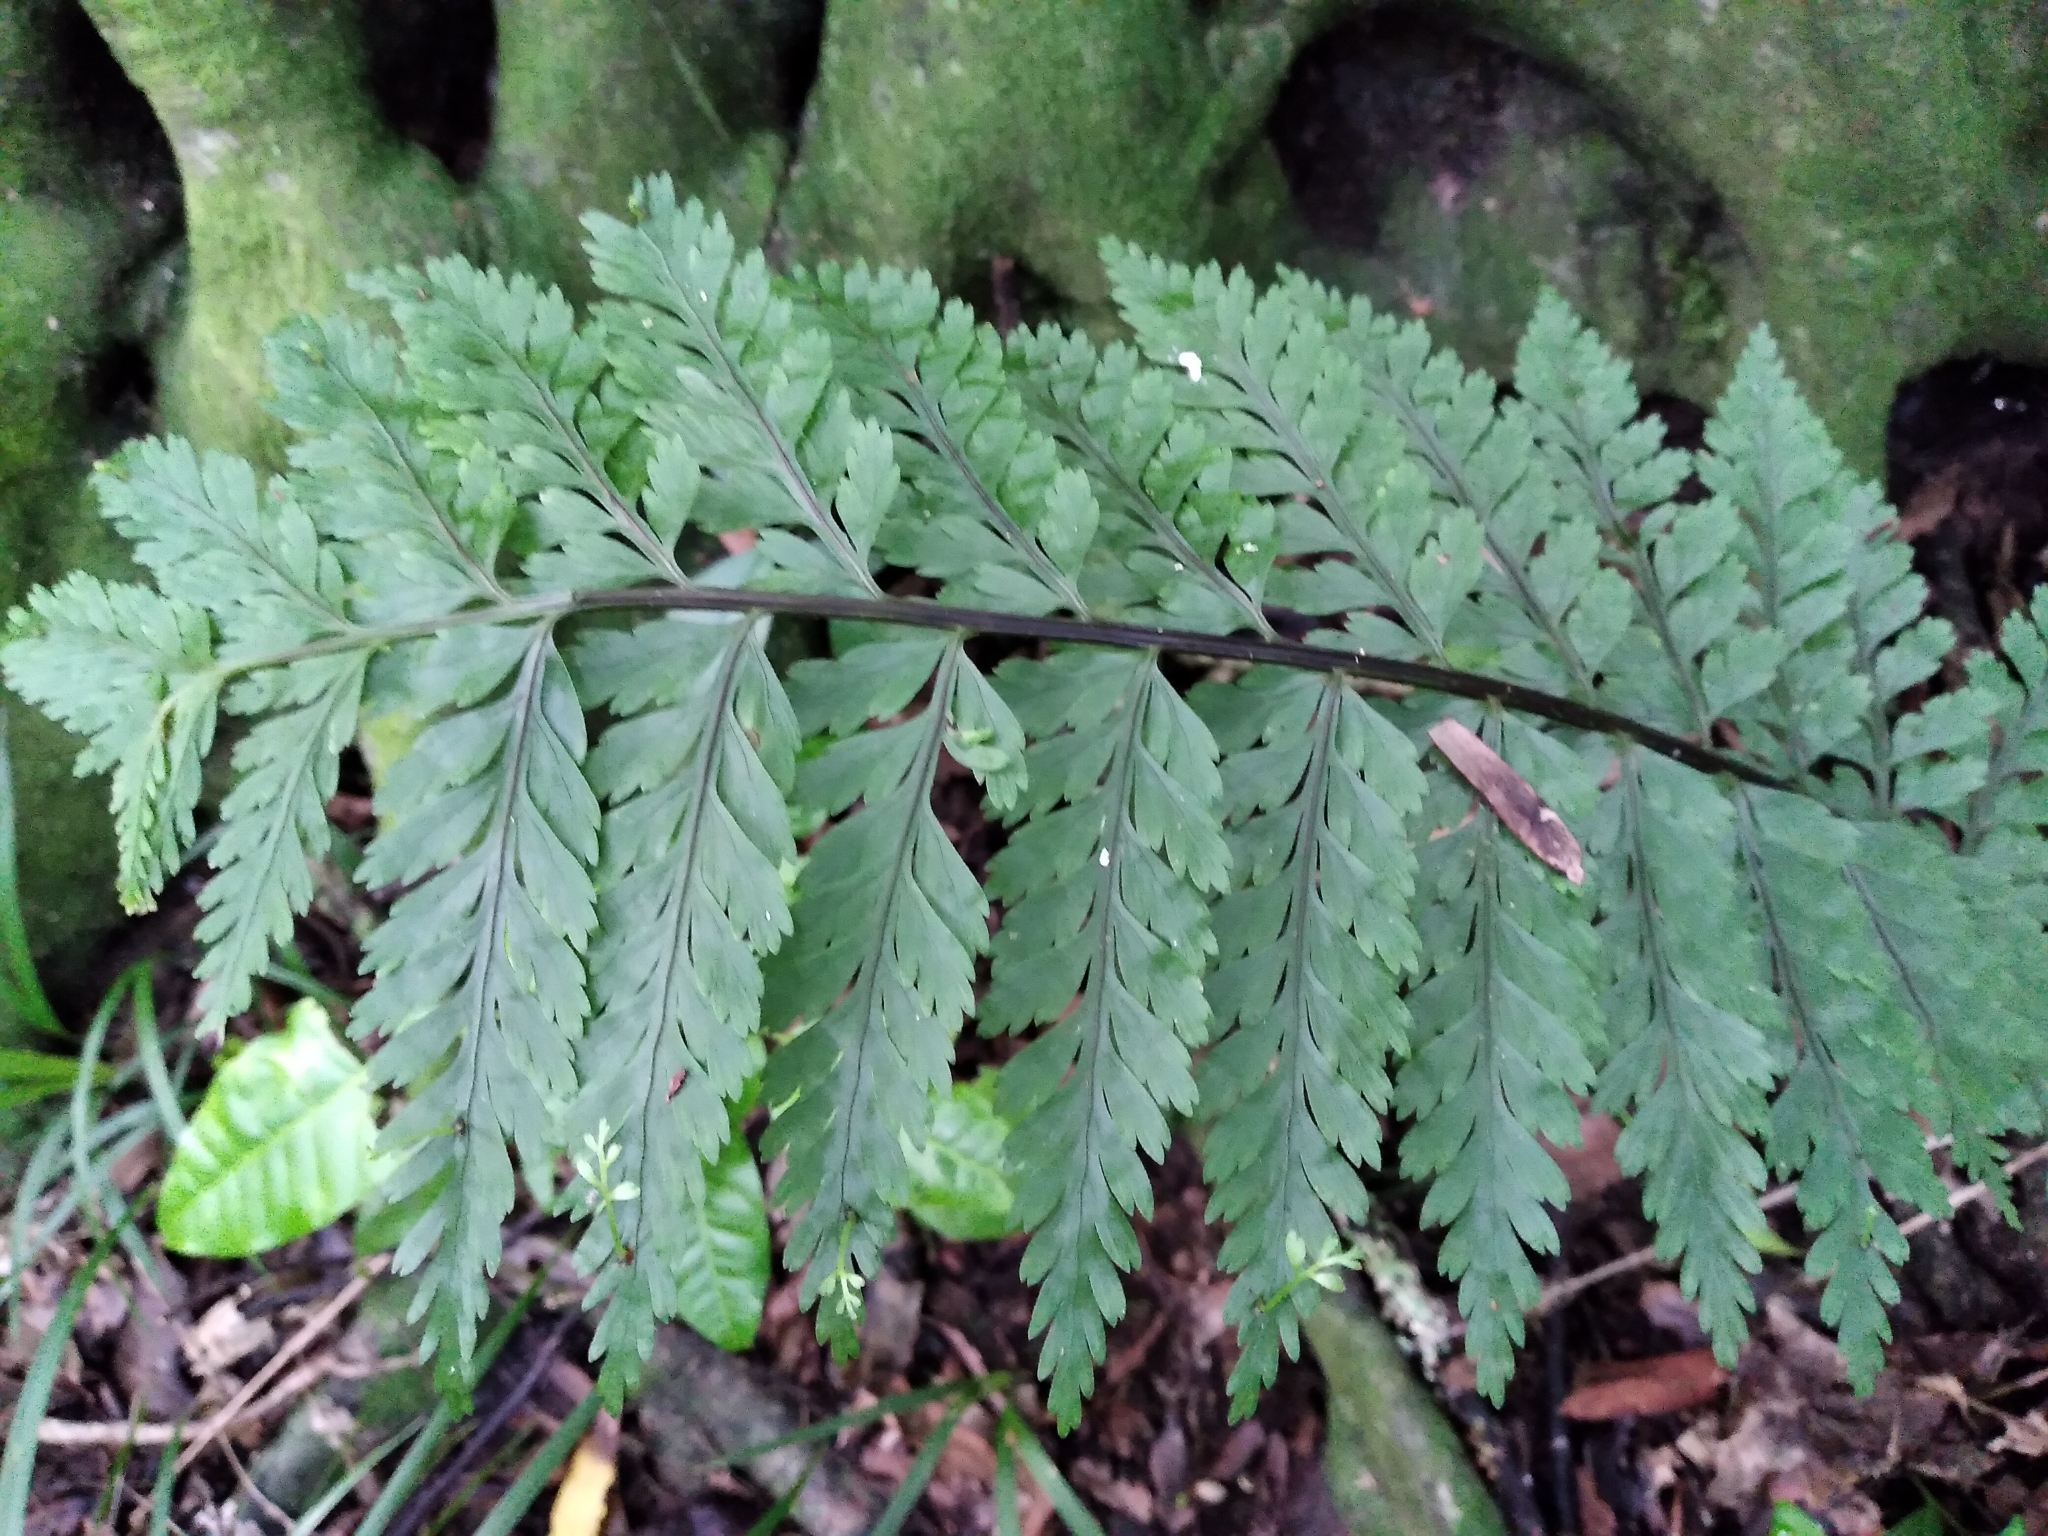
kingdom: Plantae
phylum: Tracheophyta
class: Polypodiopsida
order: Polypodiales
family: Aspleniaceae
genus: Asplenium
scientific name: Asplenium bulbiferum
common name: Mother fern
